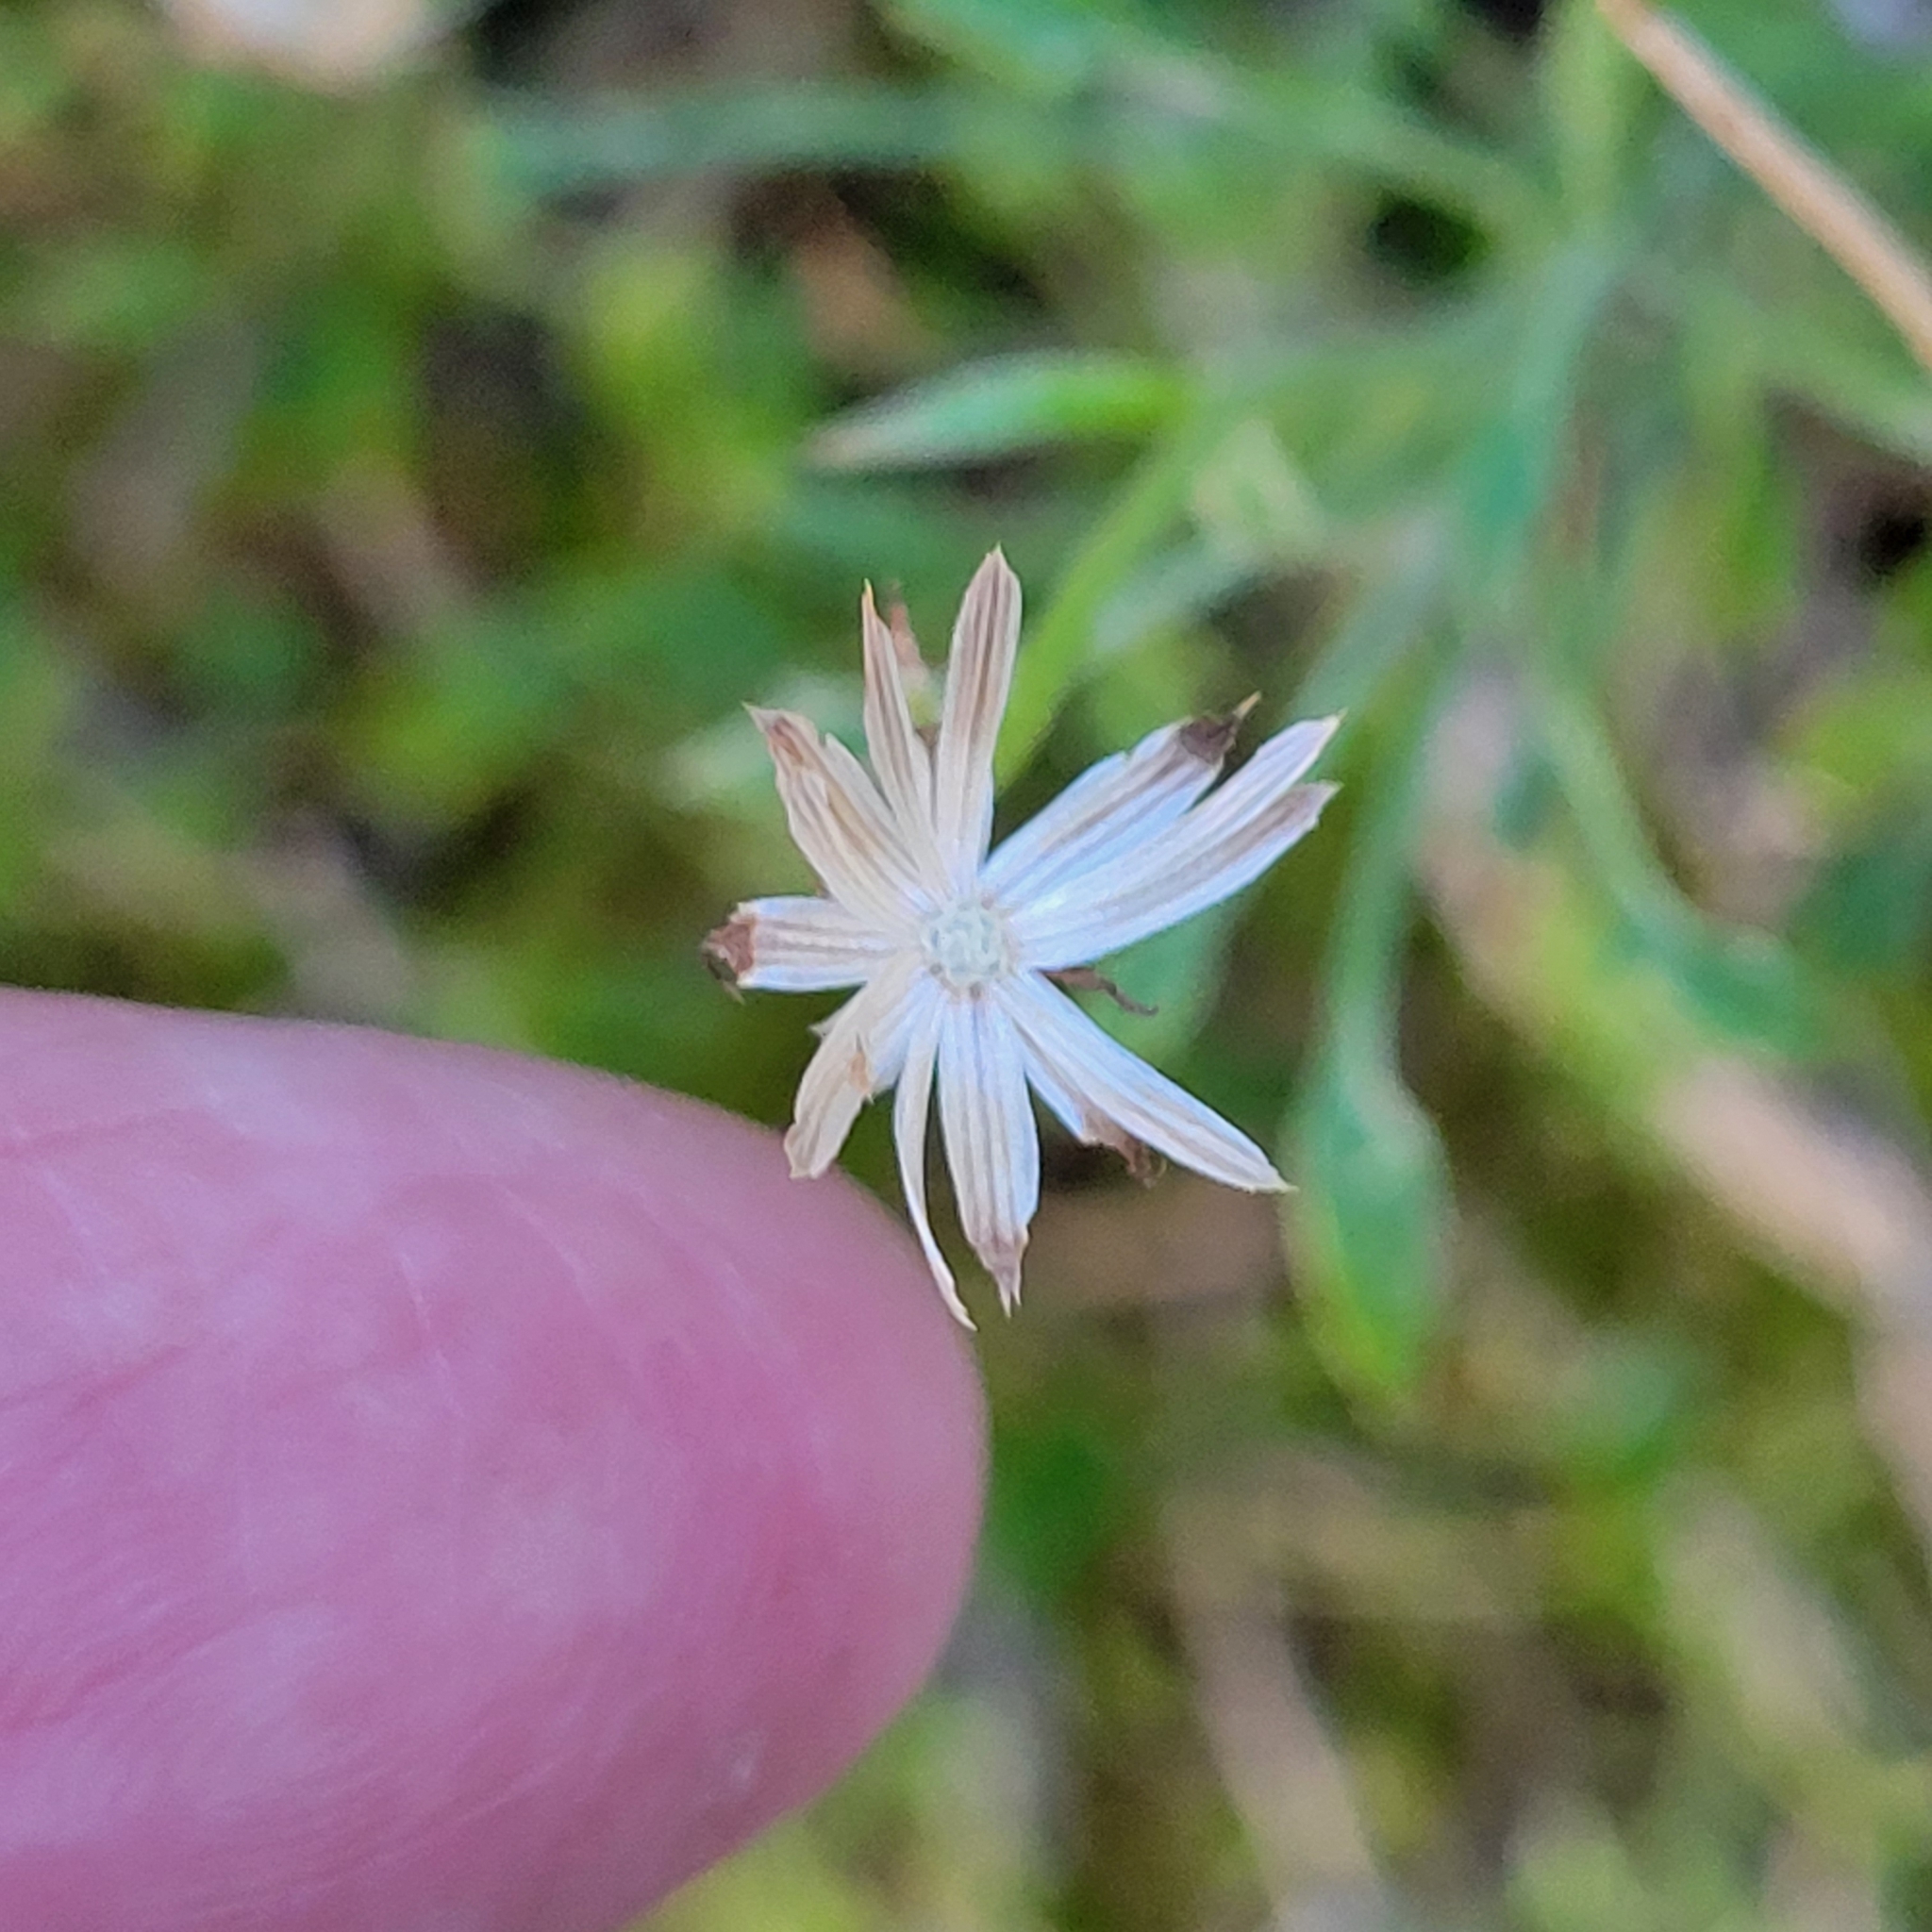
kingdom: Plantae
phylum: Tracheophyta
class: Magnoliopsida
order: Asterales
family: Asteraceae
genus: Pleurocoronis
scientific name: Pleurocoronis pluriseta
